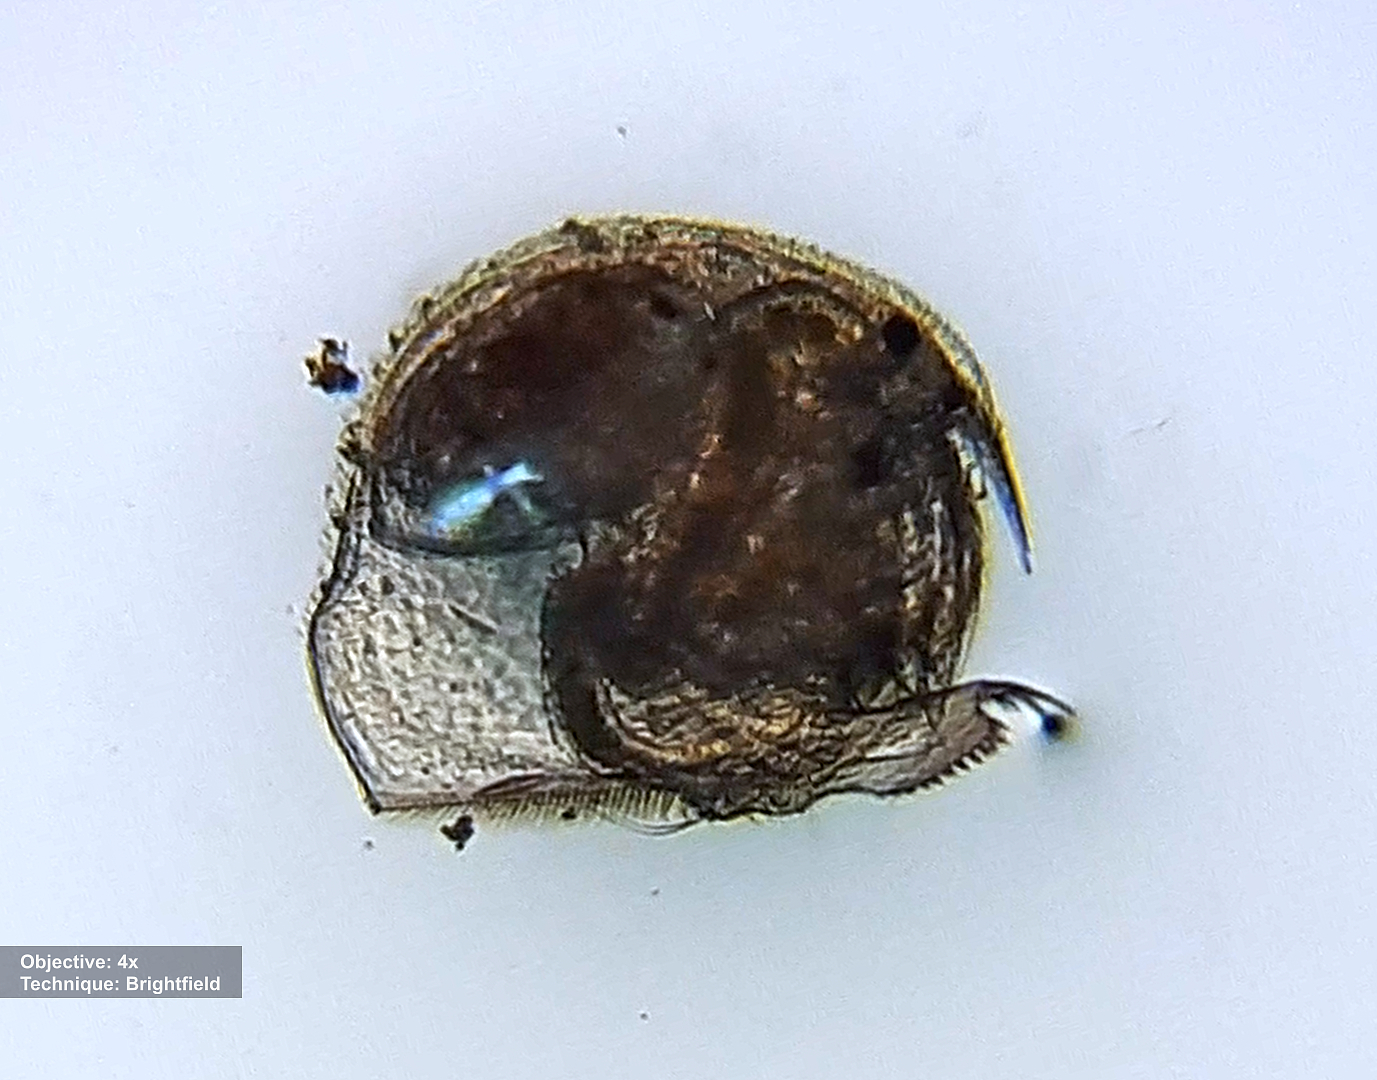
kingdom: Animalia
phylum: Arthropoda
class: Branchiopoda
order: Diplostraca
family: Chydoridae
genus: Pleuroxus
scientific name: Pleuroxus trigonellus
